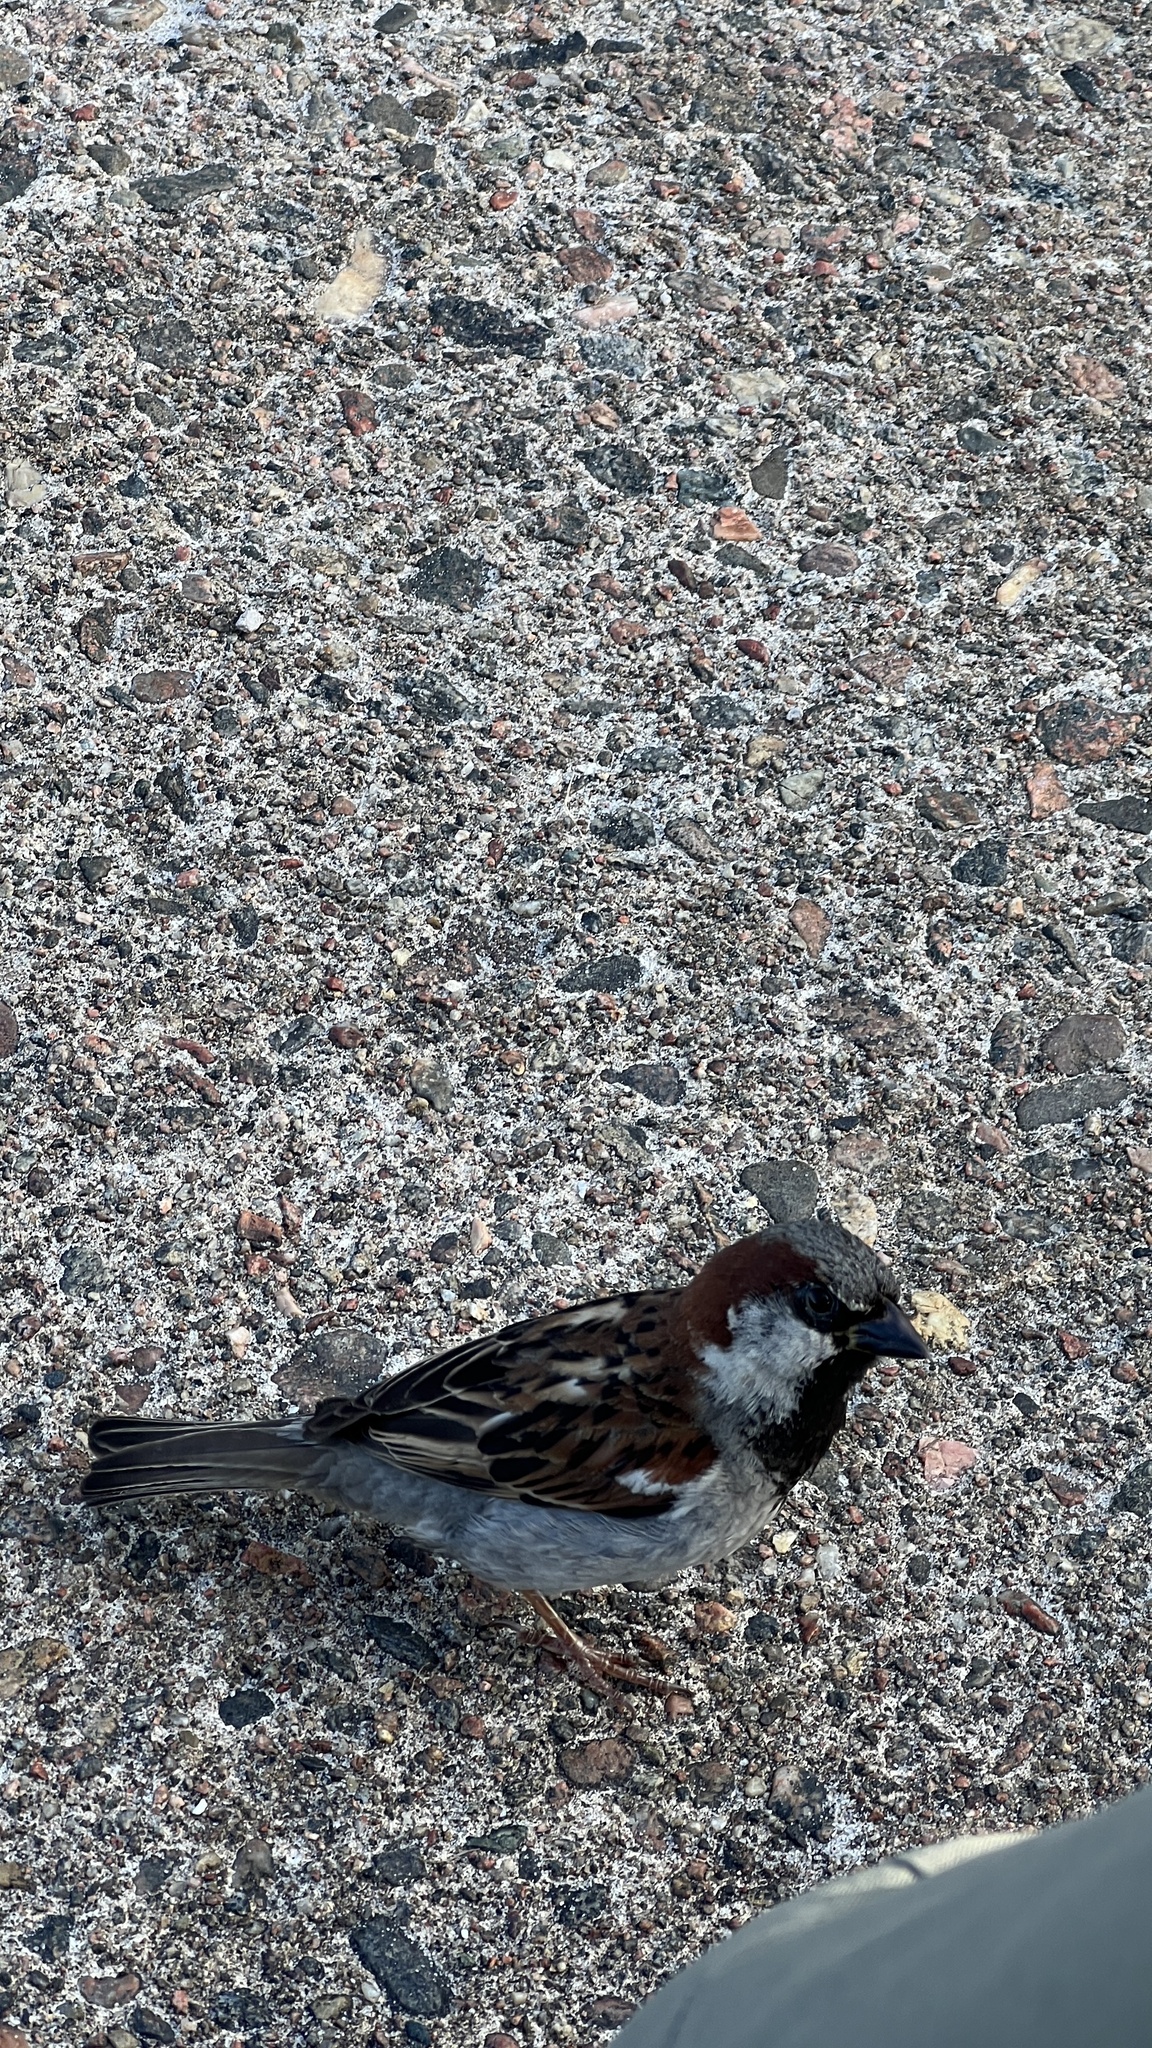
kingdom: Animalia
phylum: Chordata
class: Aves
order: Passeriformes
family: Passeridae
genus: Passer
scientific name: Passer domesticus
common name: House sparrow
